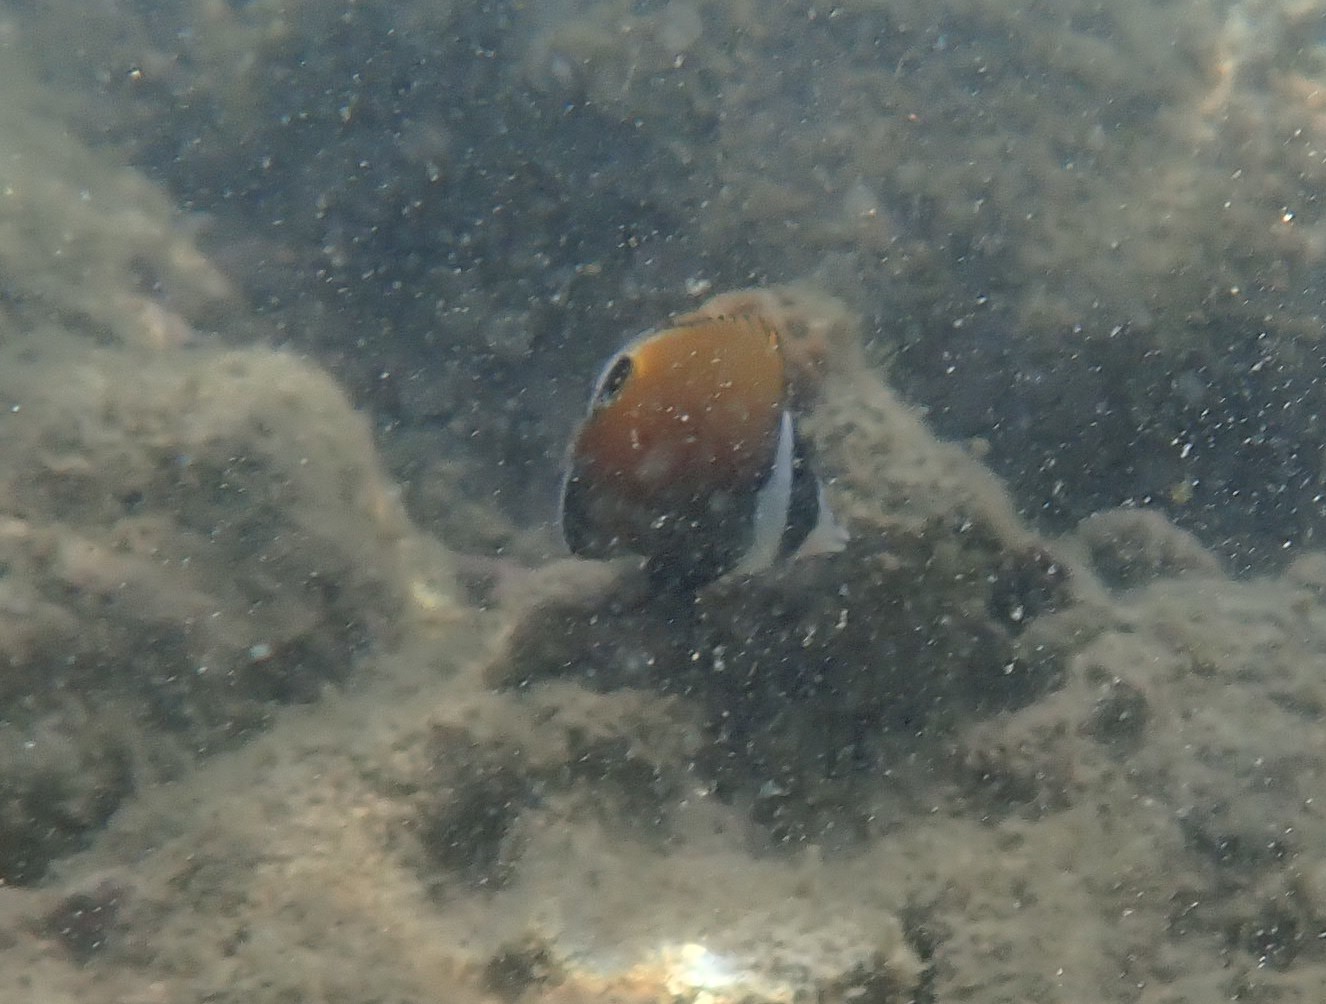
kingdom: Animalia
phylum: Chordata
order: Perciformes
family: Chaetodontidae
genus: Chaetodon
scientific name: Chaetodon collare
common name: Redtail butterflyfish
